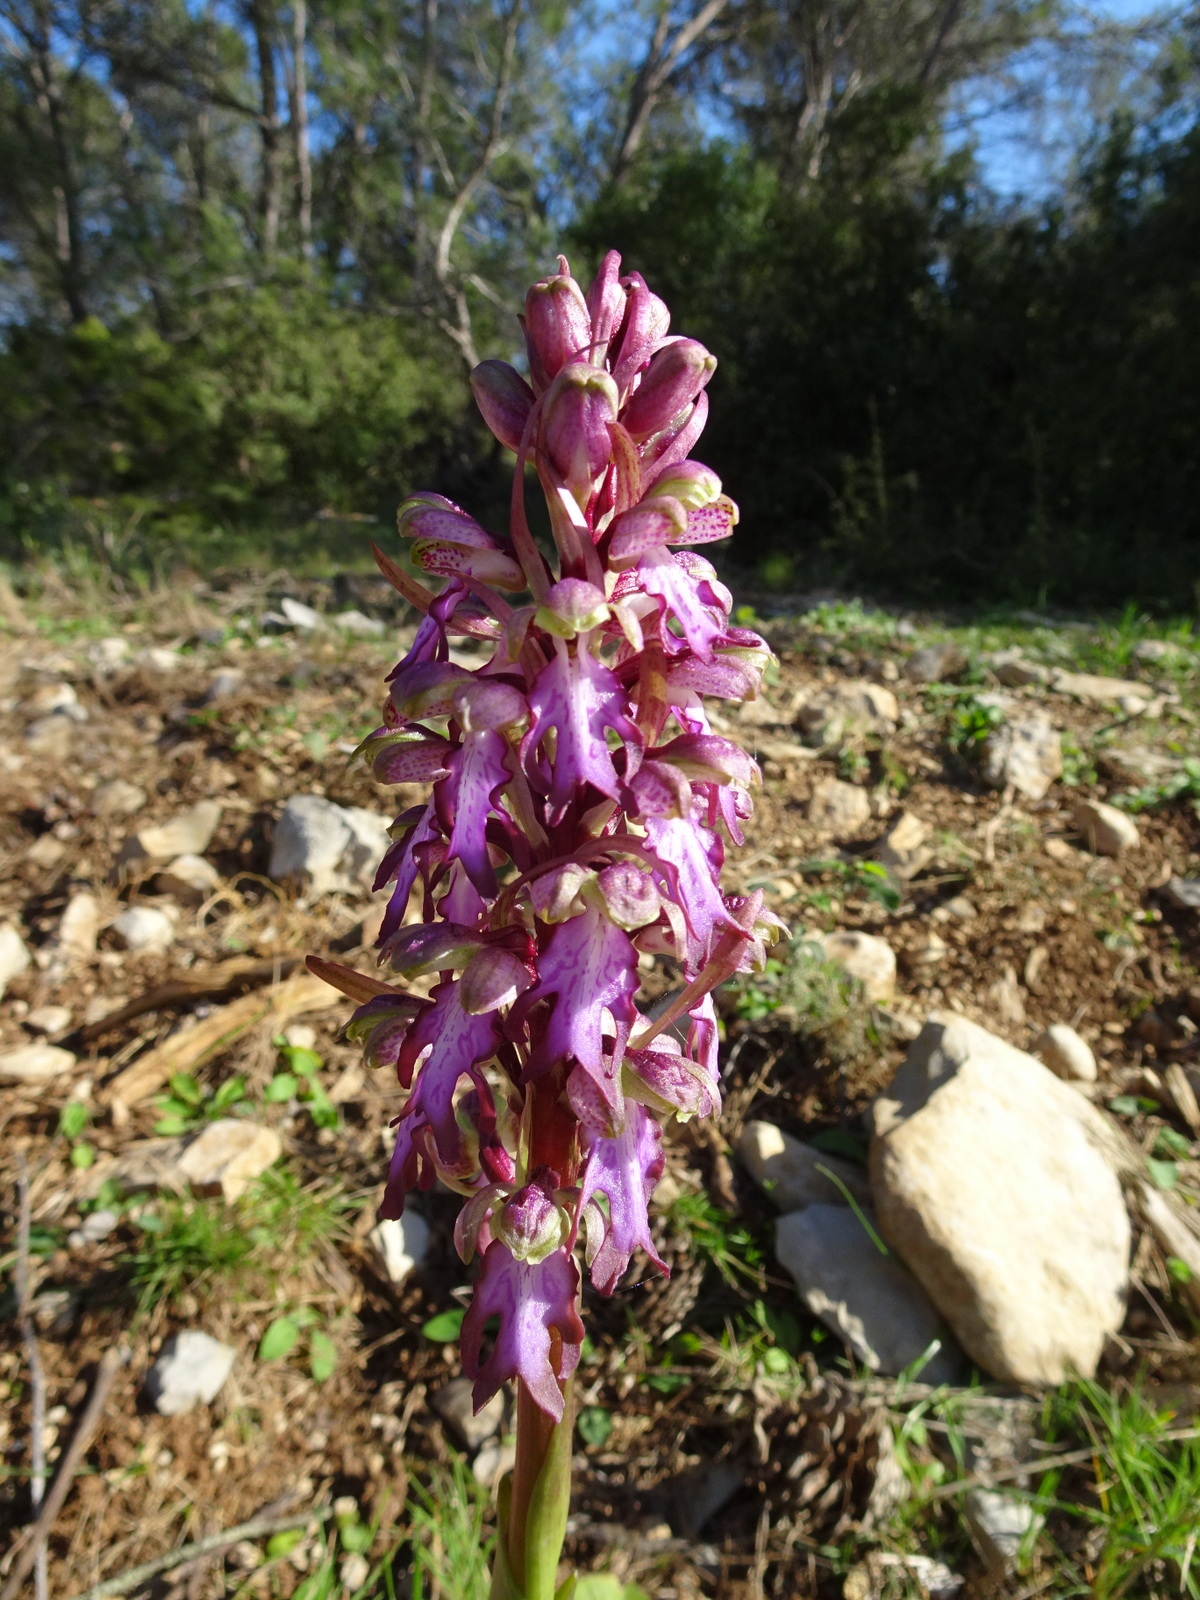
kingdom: Plantae
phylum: Tracheophyta
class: Liliopsida
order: Asparagales
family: Orchidaceae
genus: Himantoglossum
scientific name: Himantoglossum robertianum
